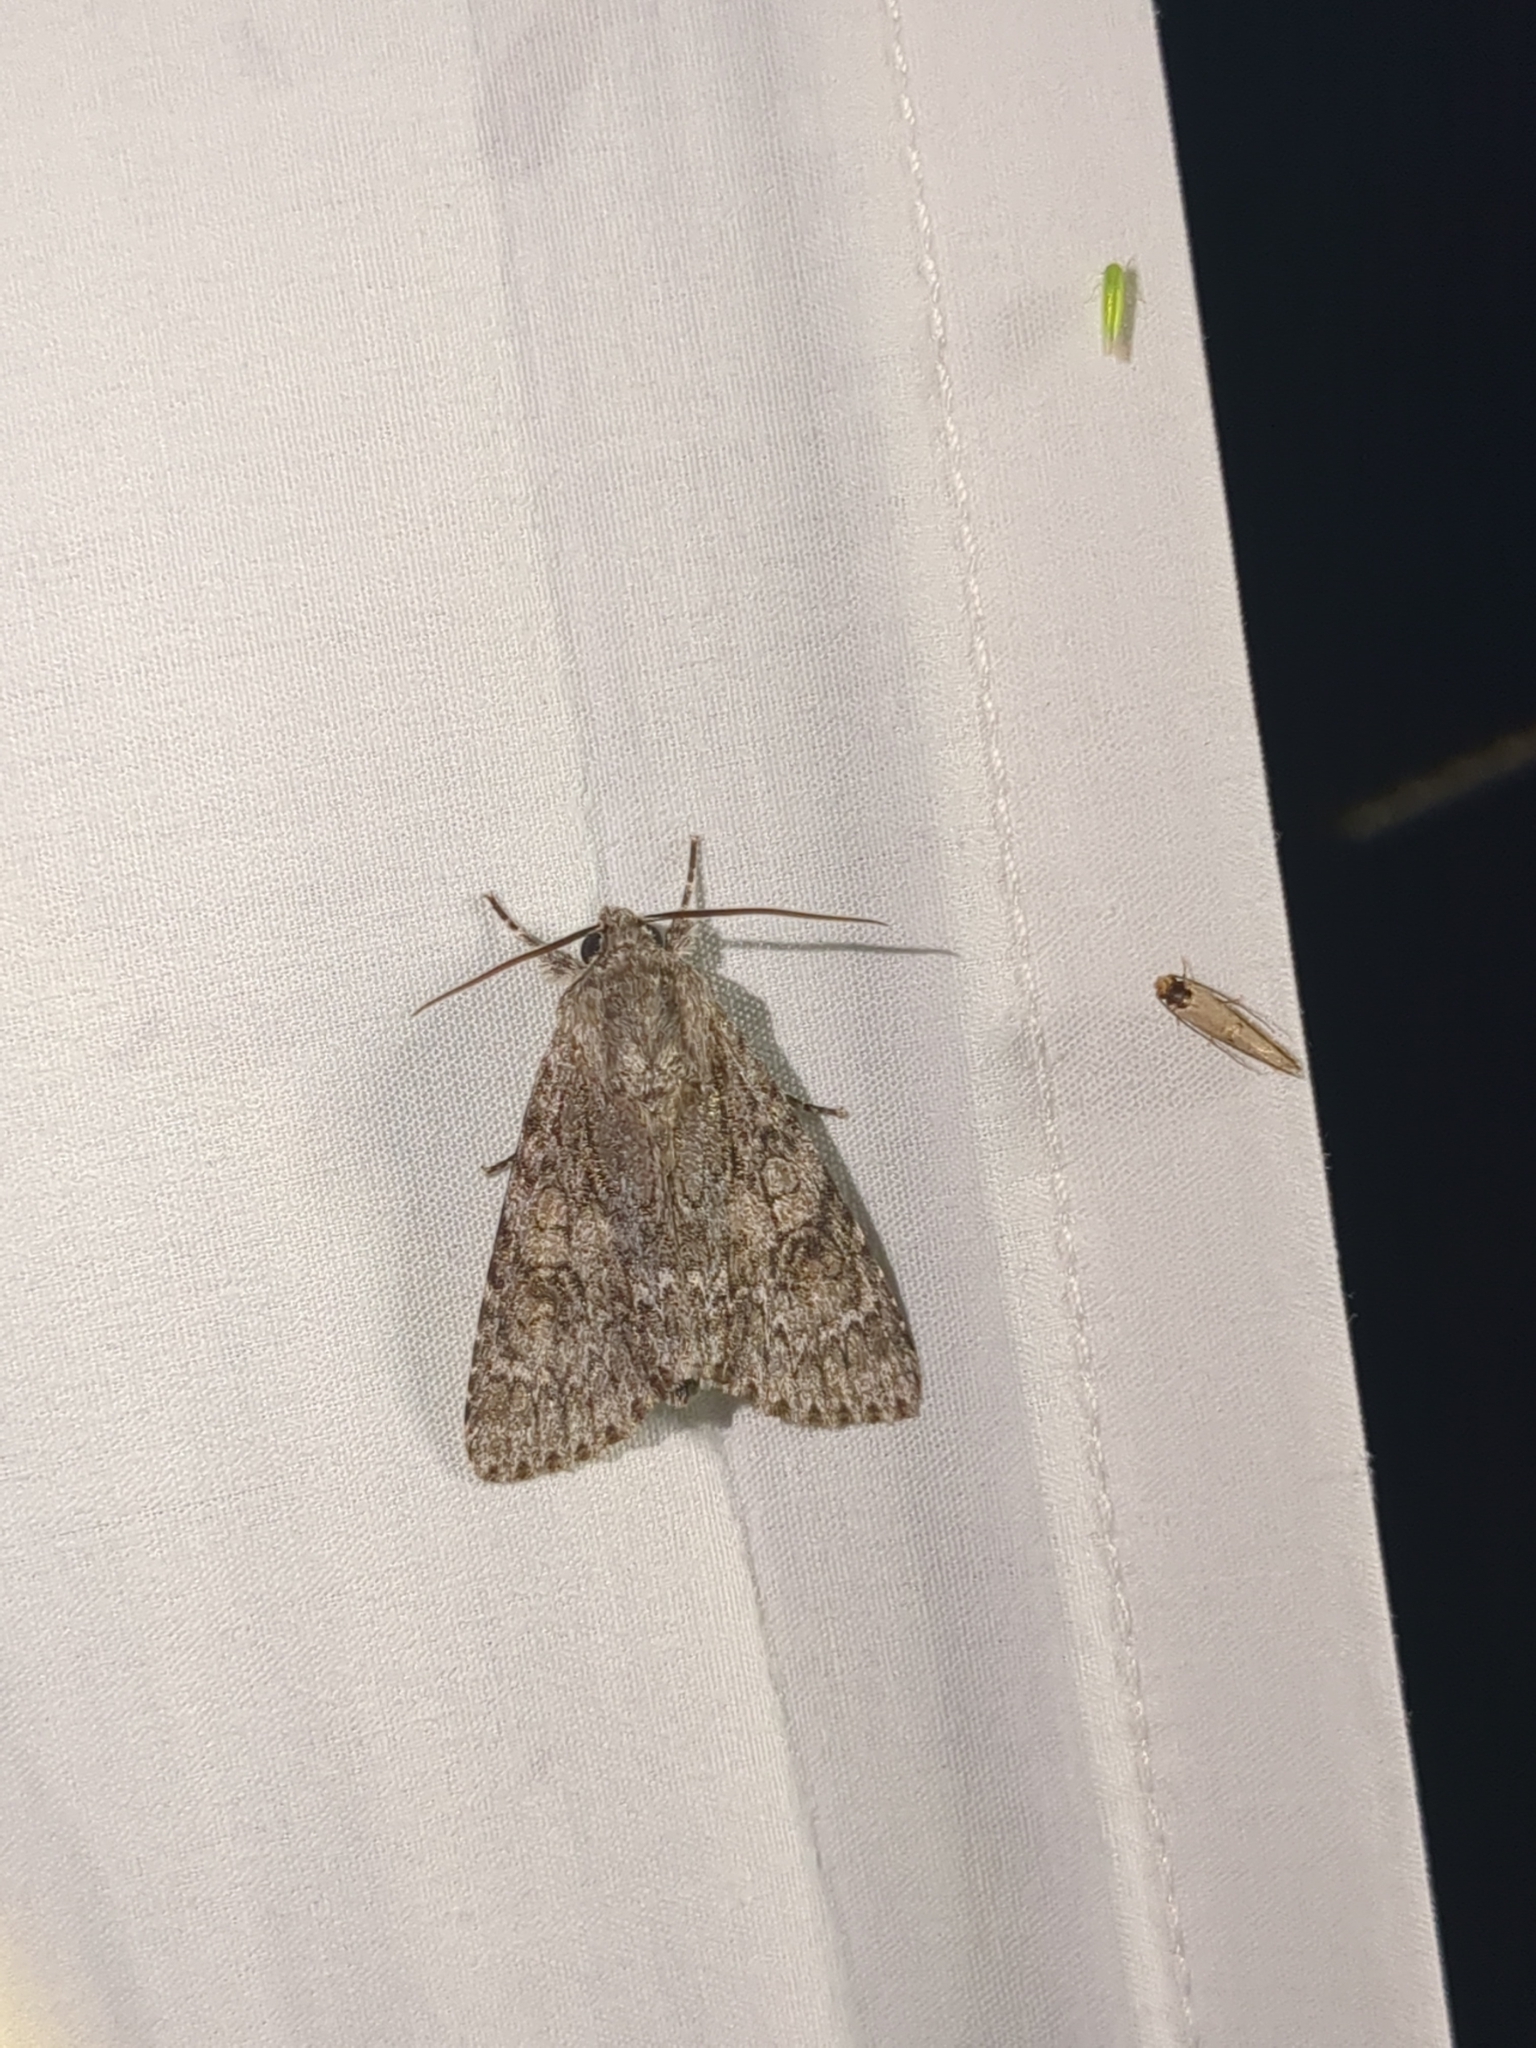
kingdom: Animalia
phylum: Arthropoda
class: Insecta
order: Lepidoptera
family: Noctuidae
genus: Acronicta
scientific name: Acronicta rubricoma
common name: Hackberry dagger
